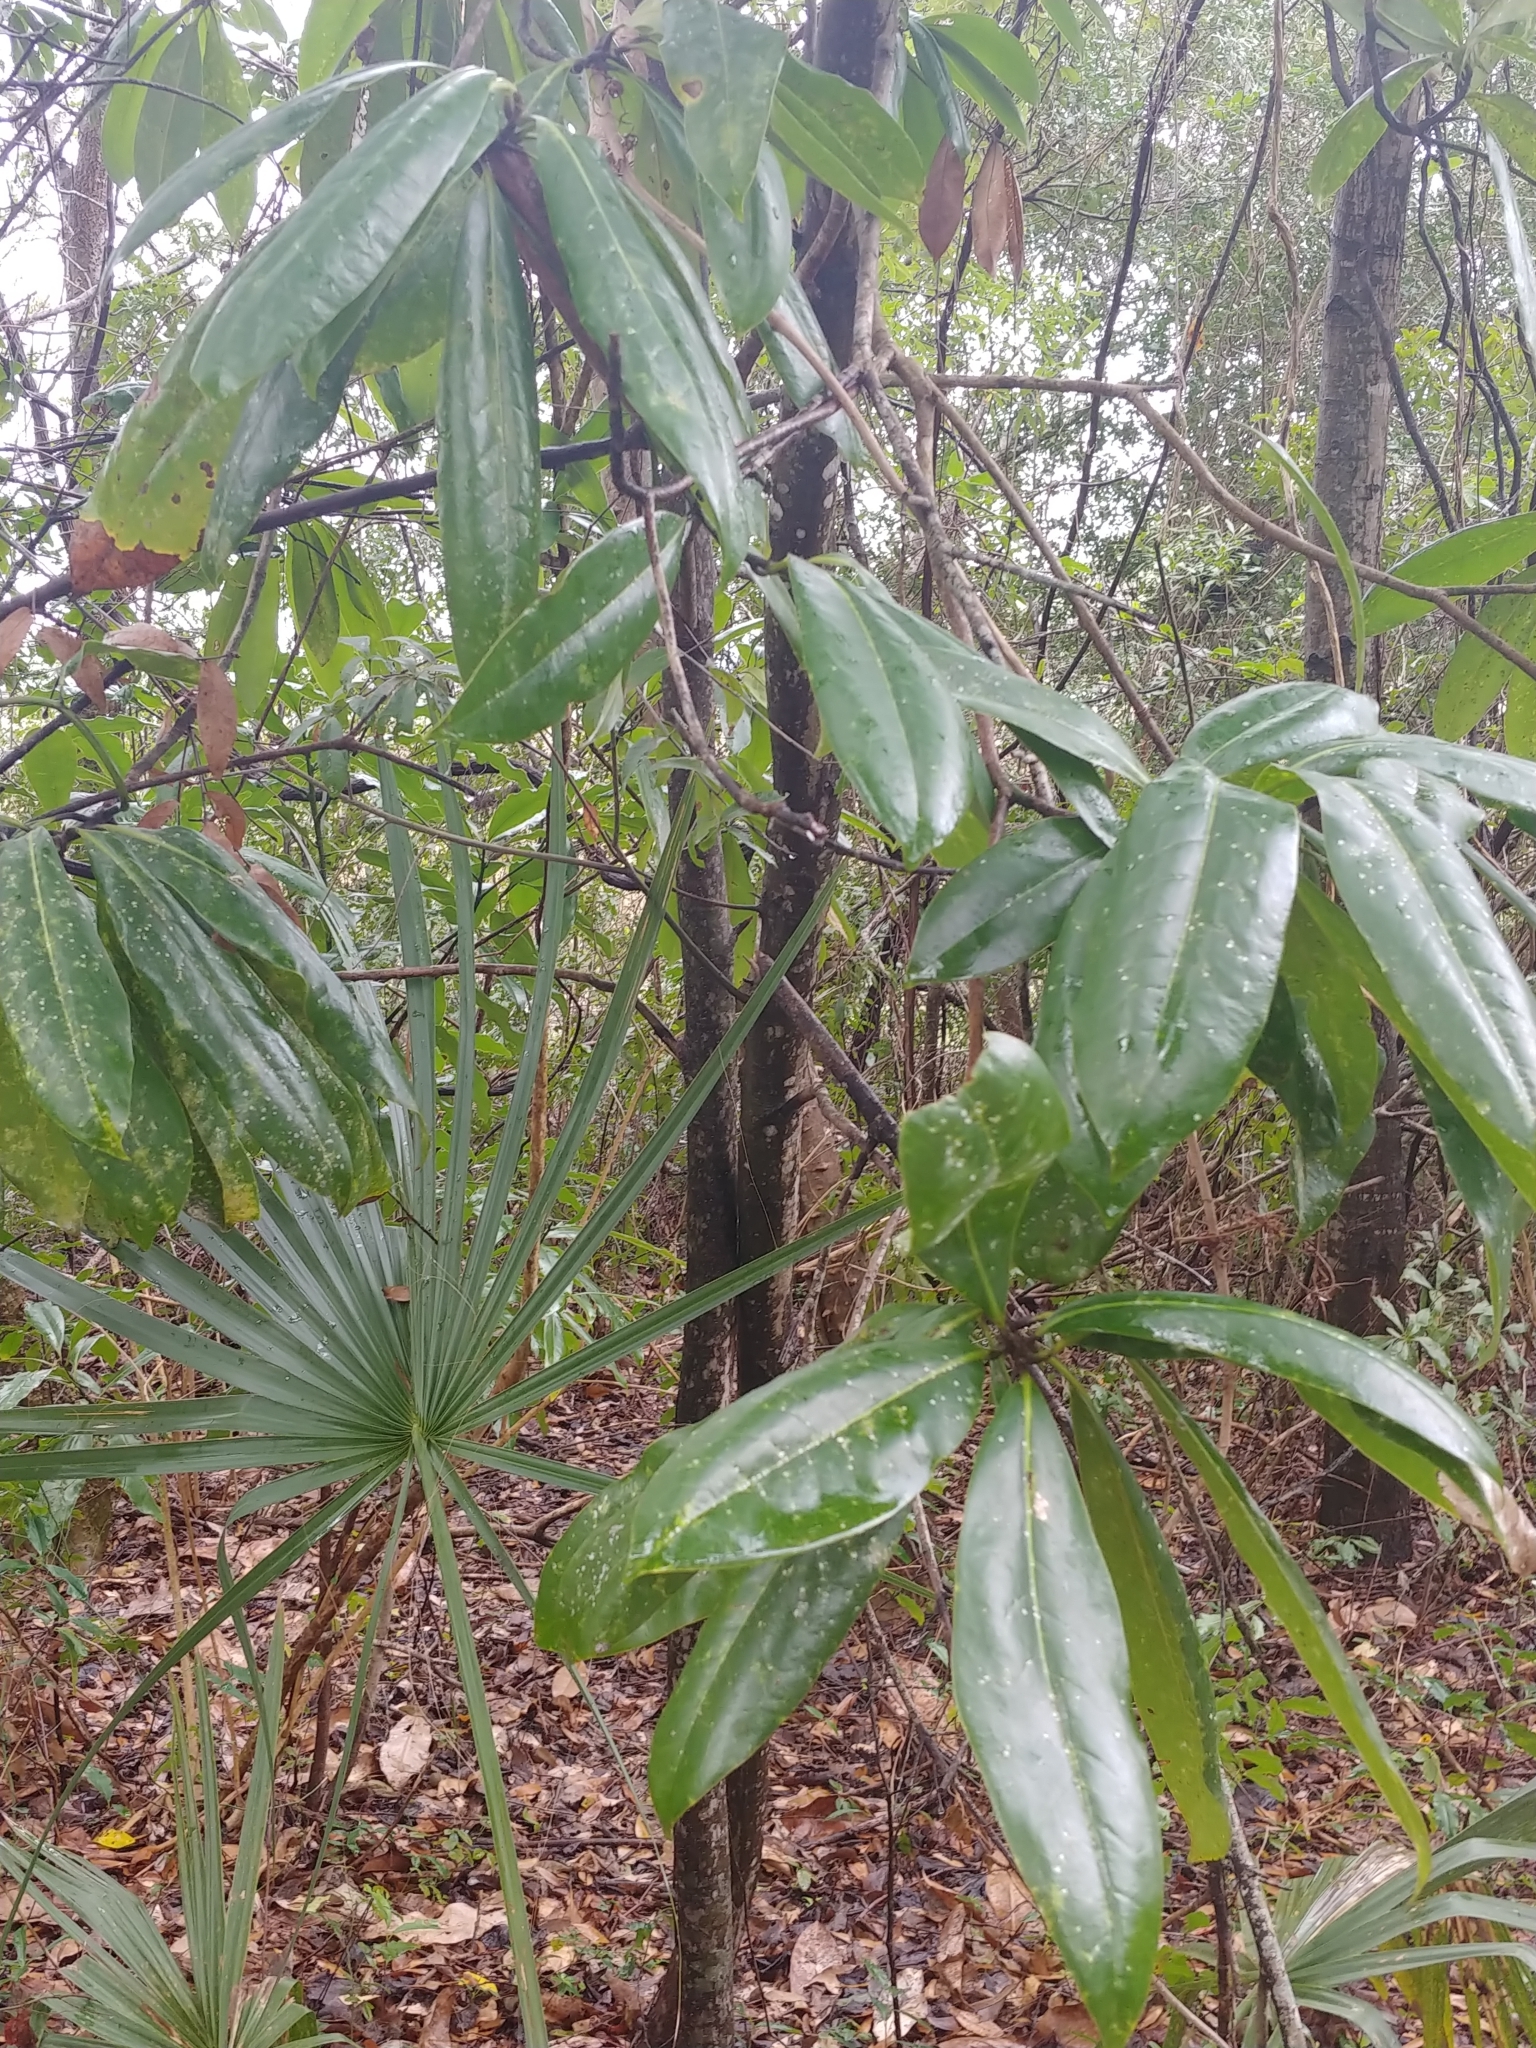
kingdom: Plantae
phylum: Tracheophyta
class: Magnoliopsida
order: Magnoliales
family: Magnoliaceae
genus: Magnolia
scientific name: Magnolia grandiflora
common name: Southern magnolia
